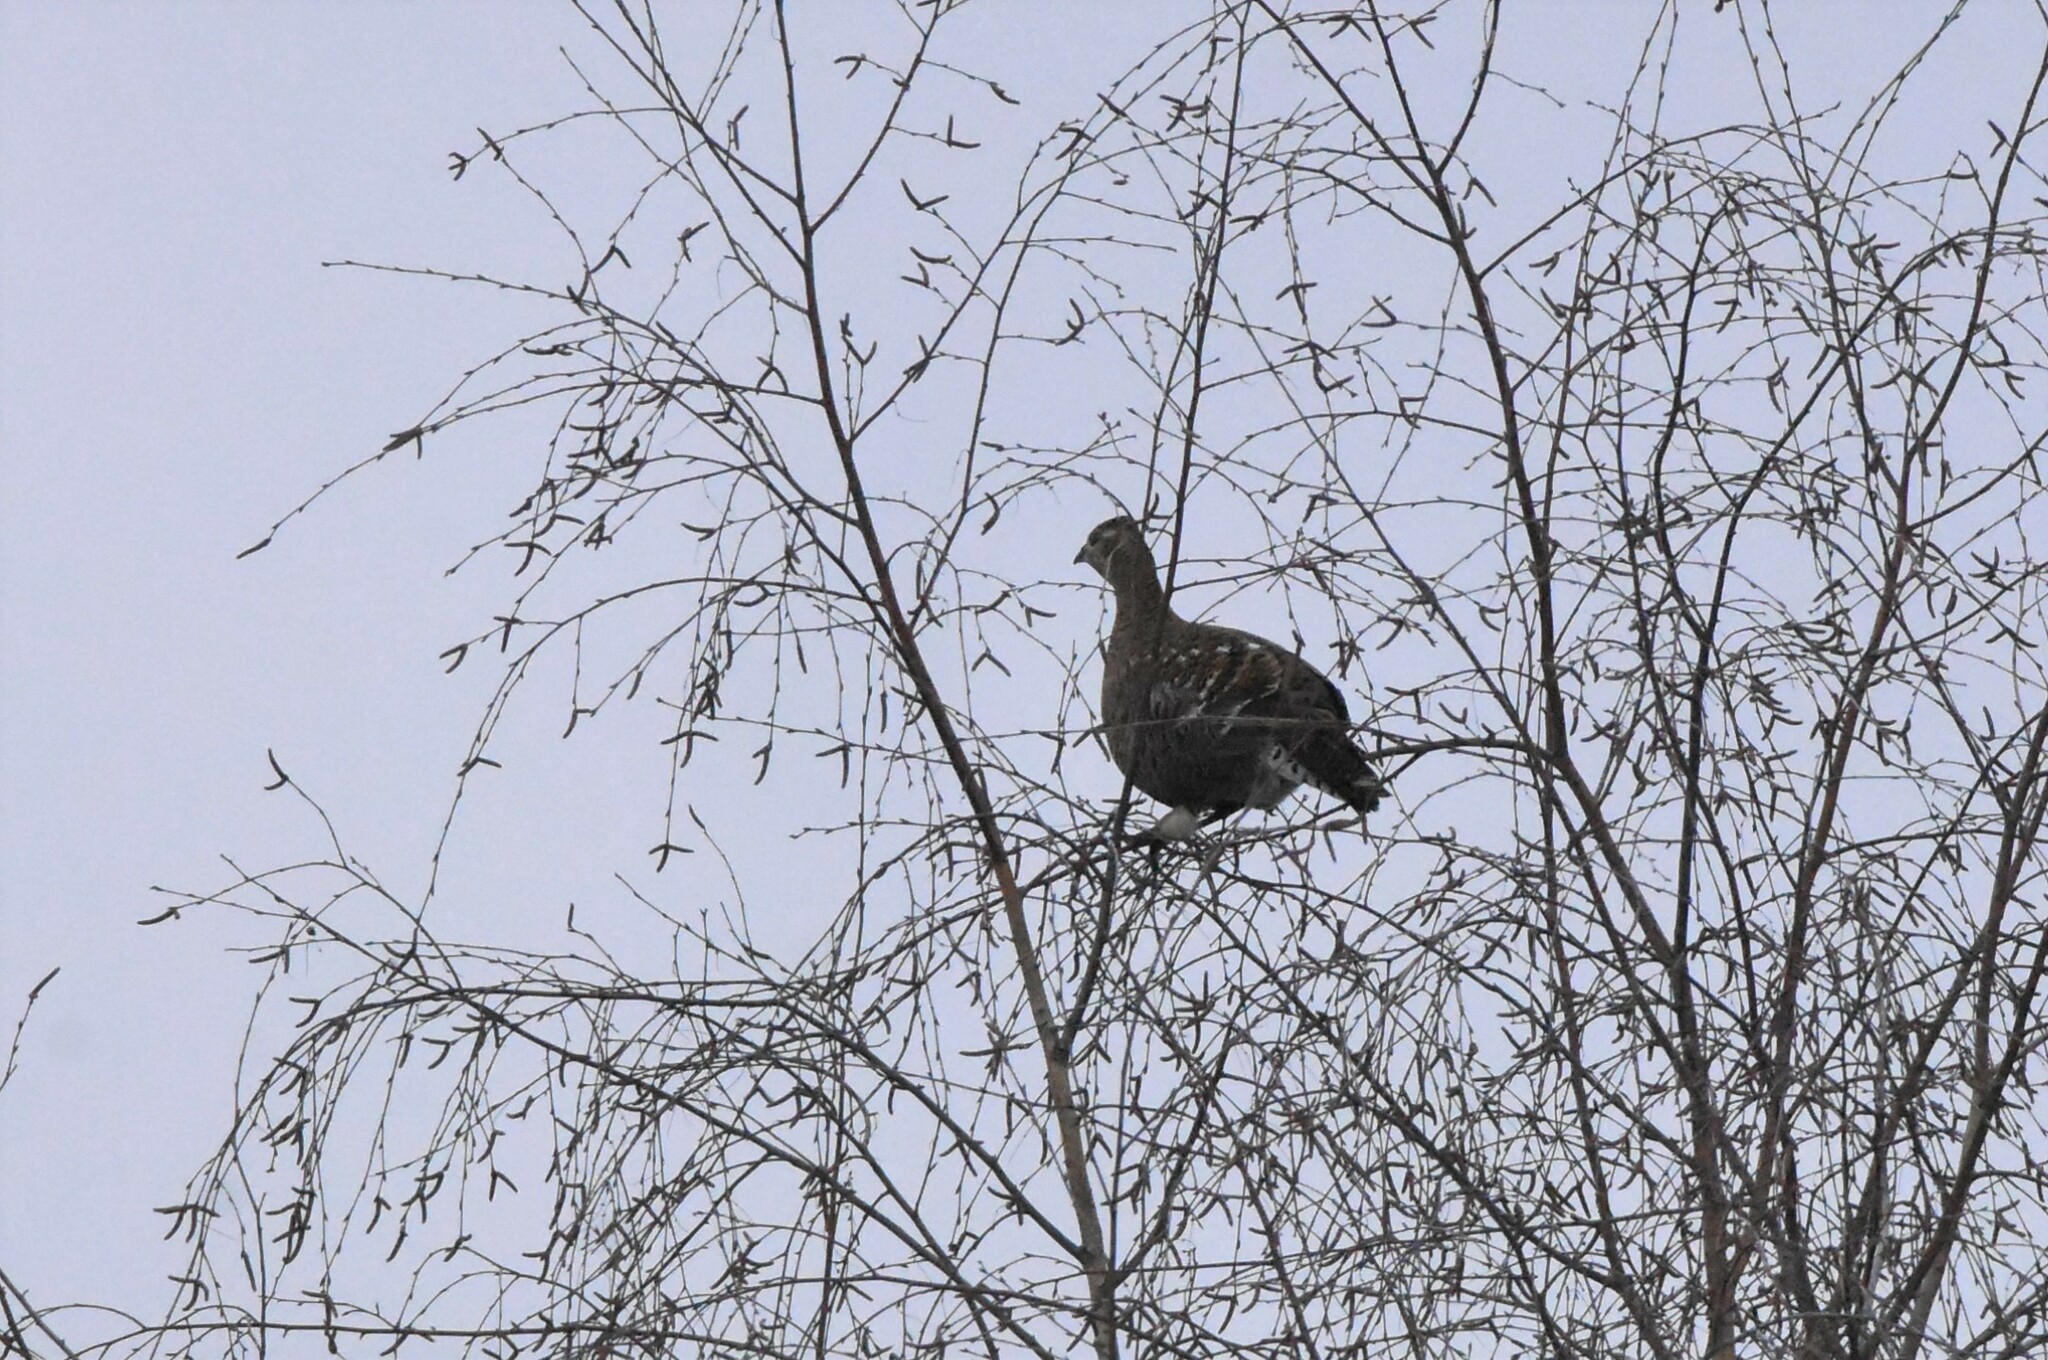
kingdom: Animalia
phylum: Chordata
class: Aves
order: Galliformes
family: Phasianidae
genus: Lyrurus
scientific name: Lyrurus tetrix
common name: Black grouse
